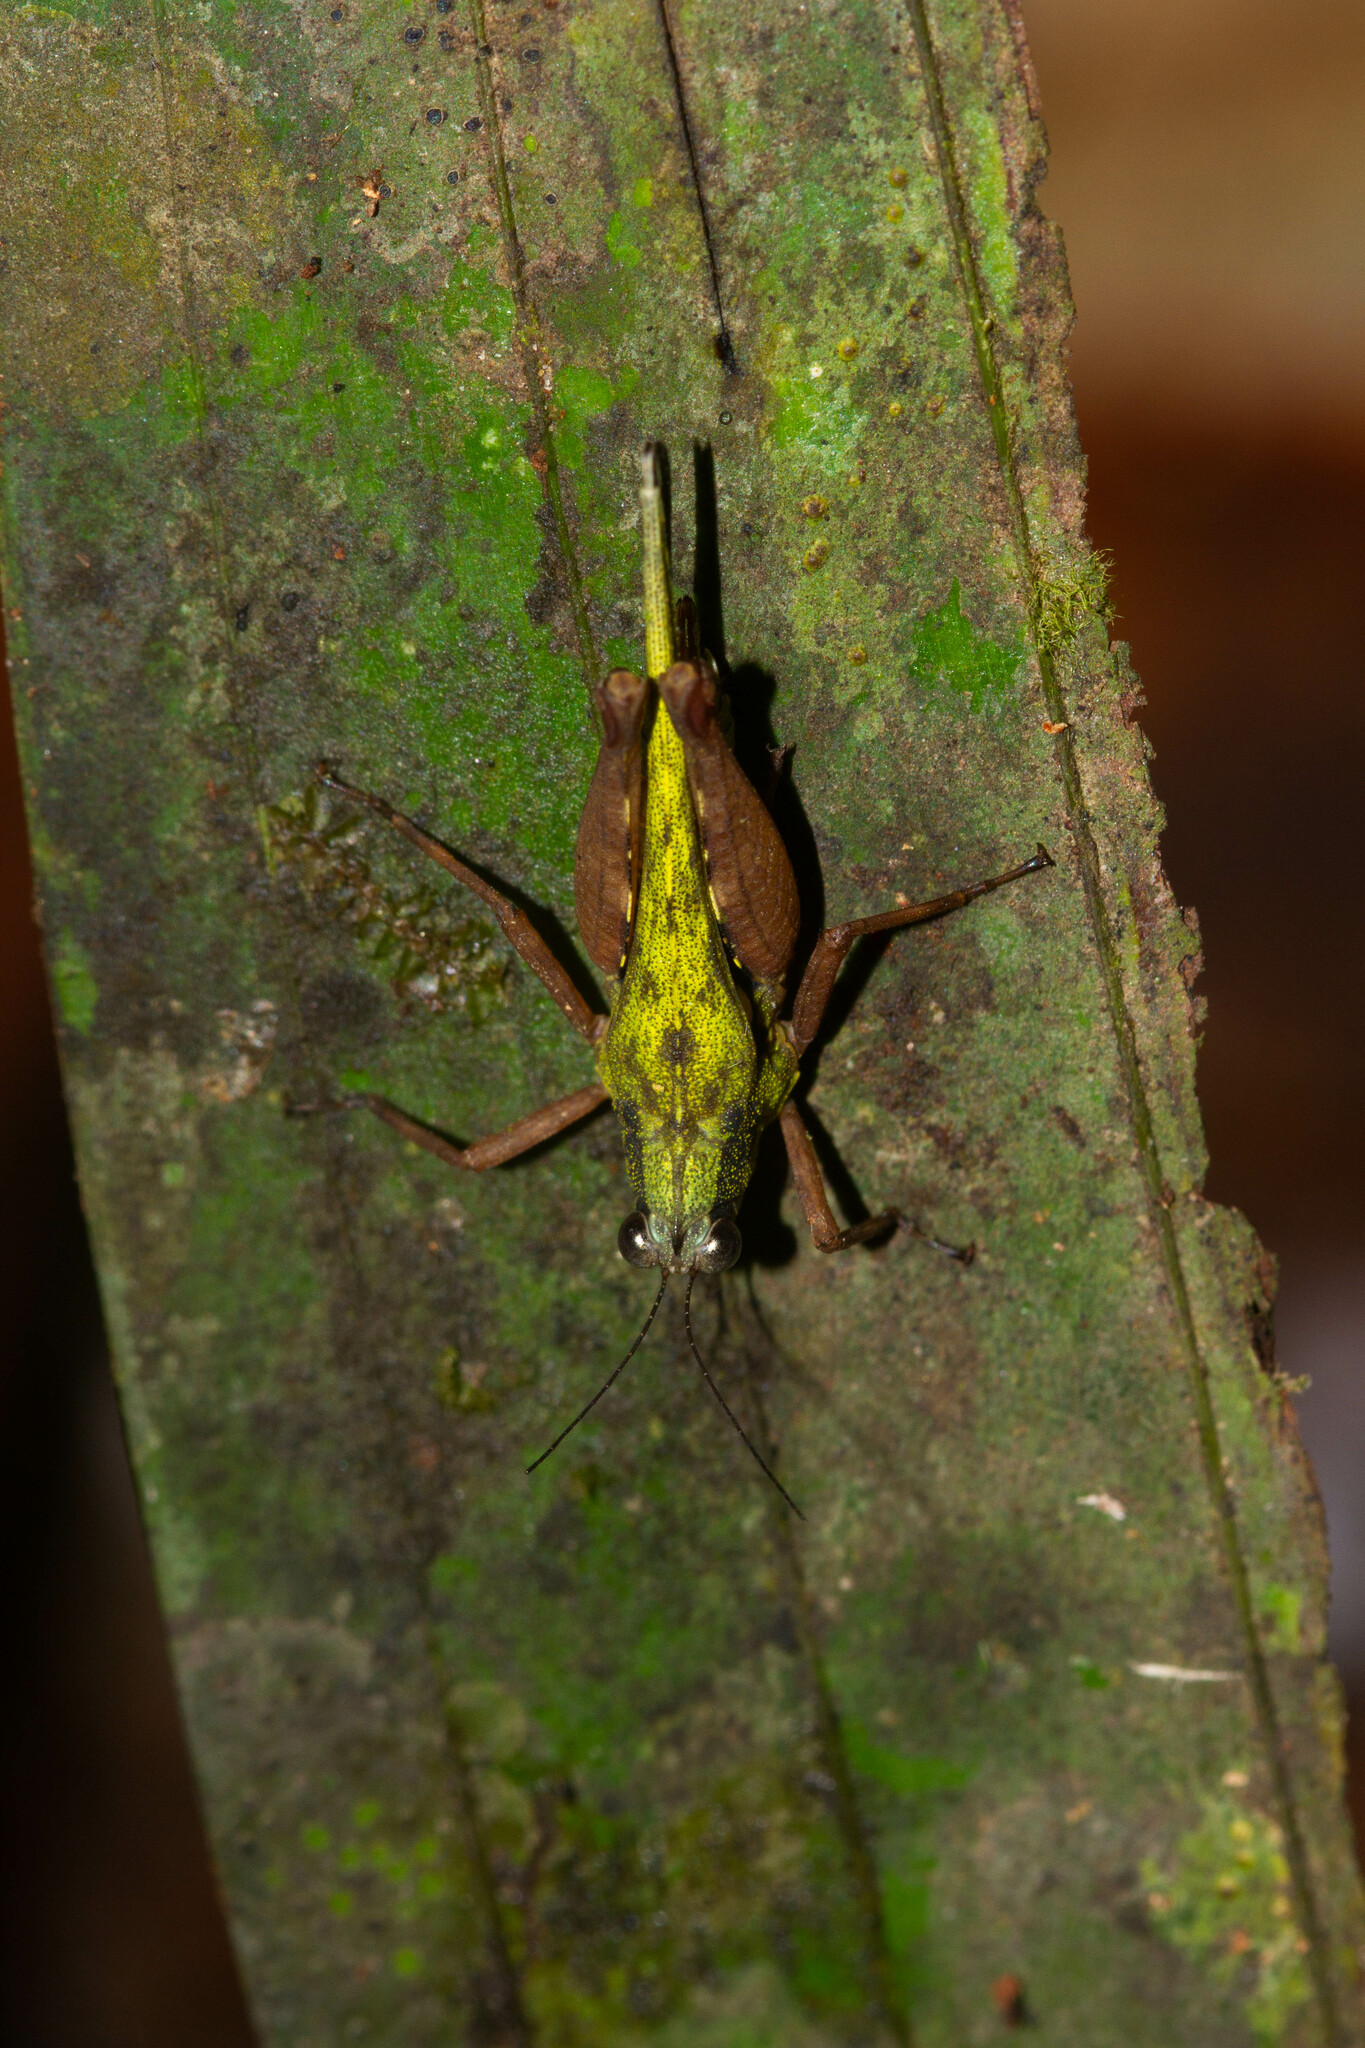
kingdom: Animalia
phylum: Arthropoda
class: Insecta
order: Orthoptera
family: Tetrigidae
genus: Scaria
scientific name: Scaria
